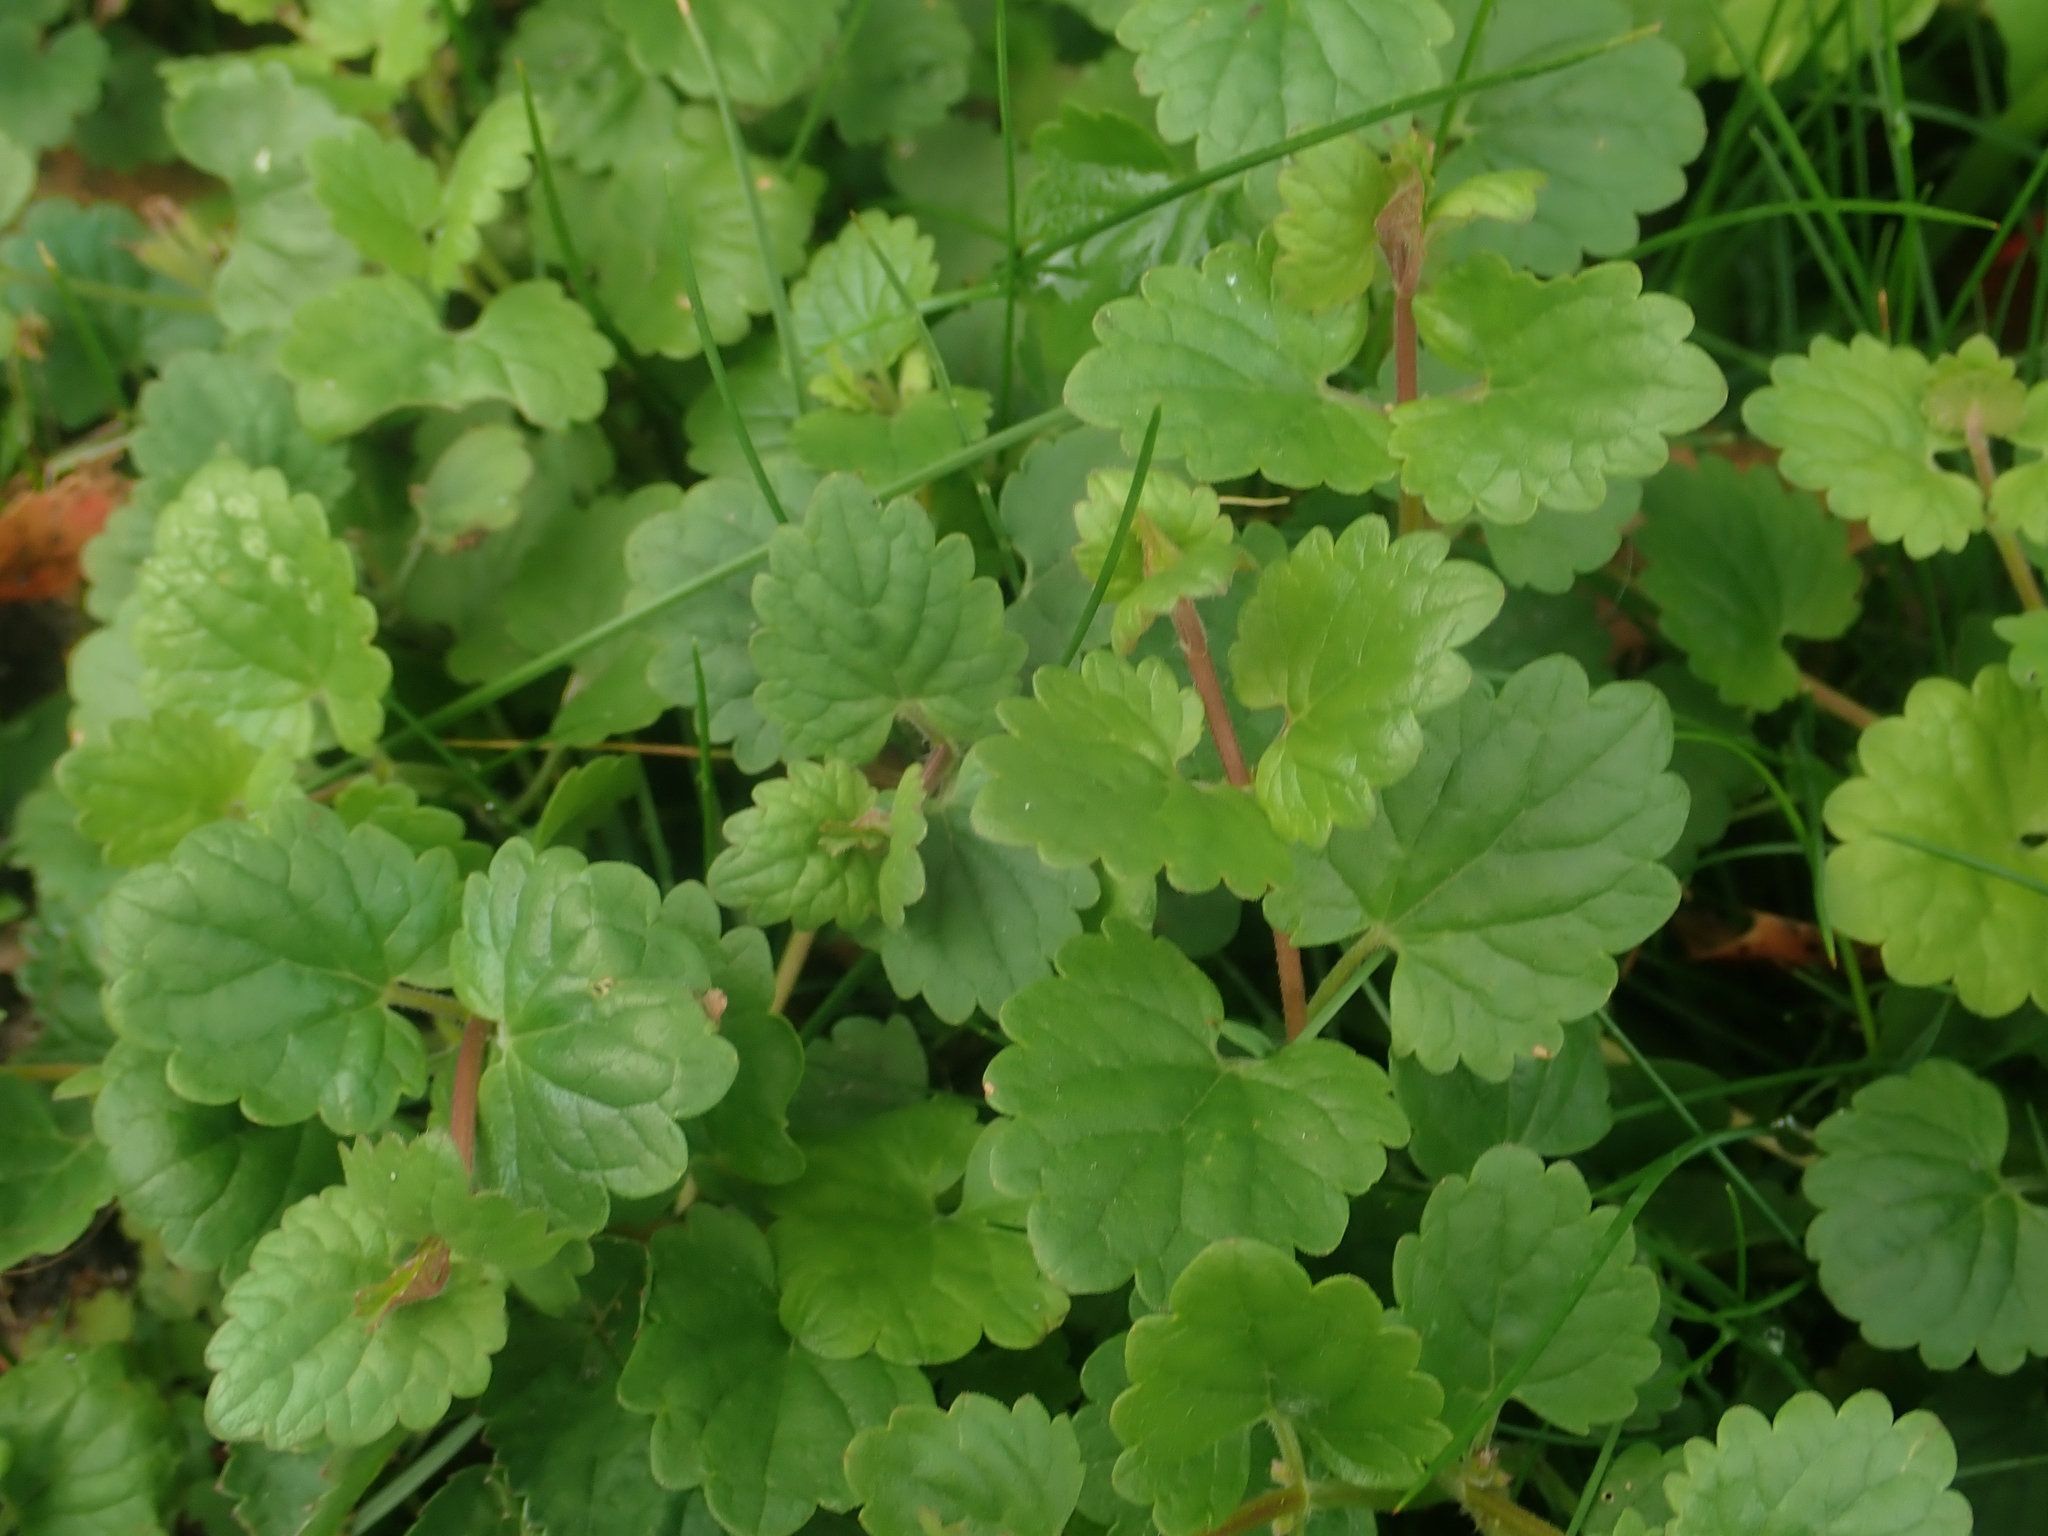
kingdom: Plantae
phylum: Tracheophyta
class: Magnoliopsida
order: Lamiales
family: Lamiaceae
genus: Glechoma
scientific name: Glechoma hederacea
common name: Ground ivy
